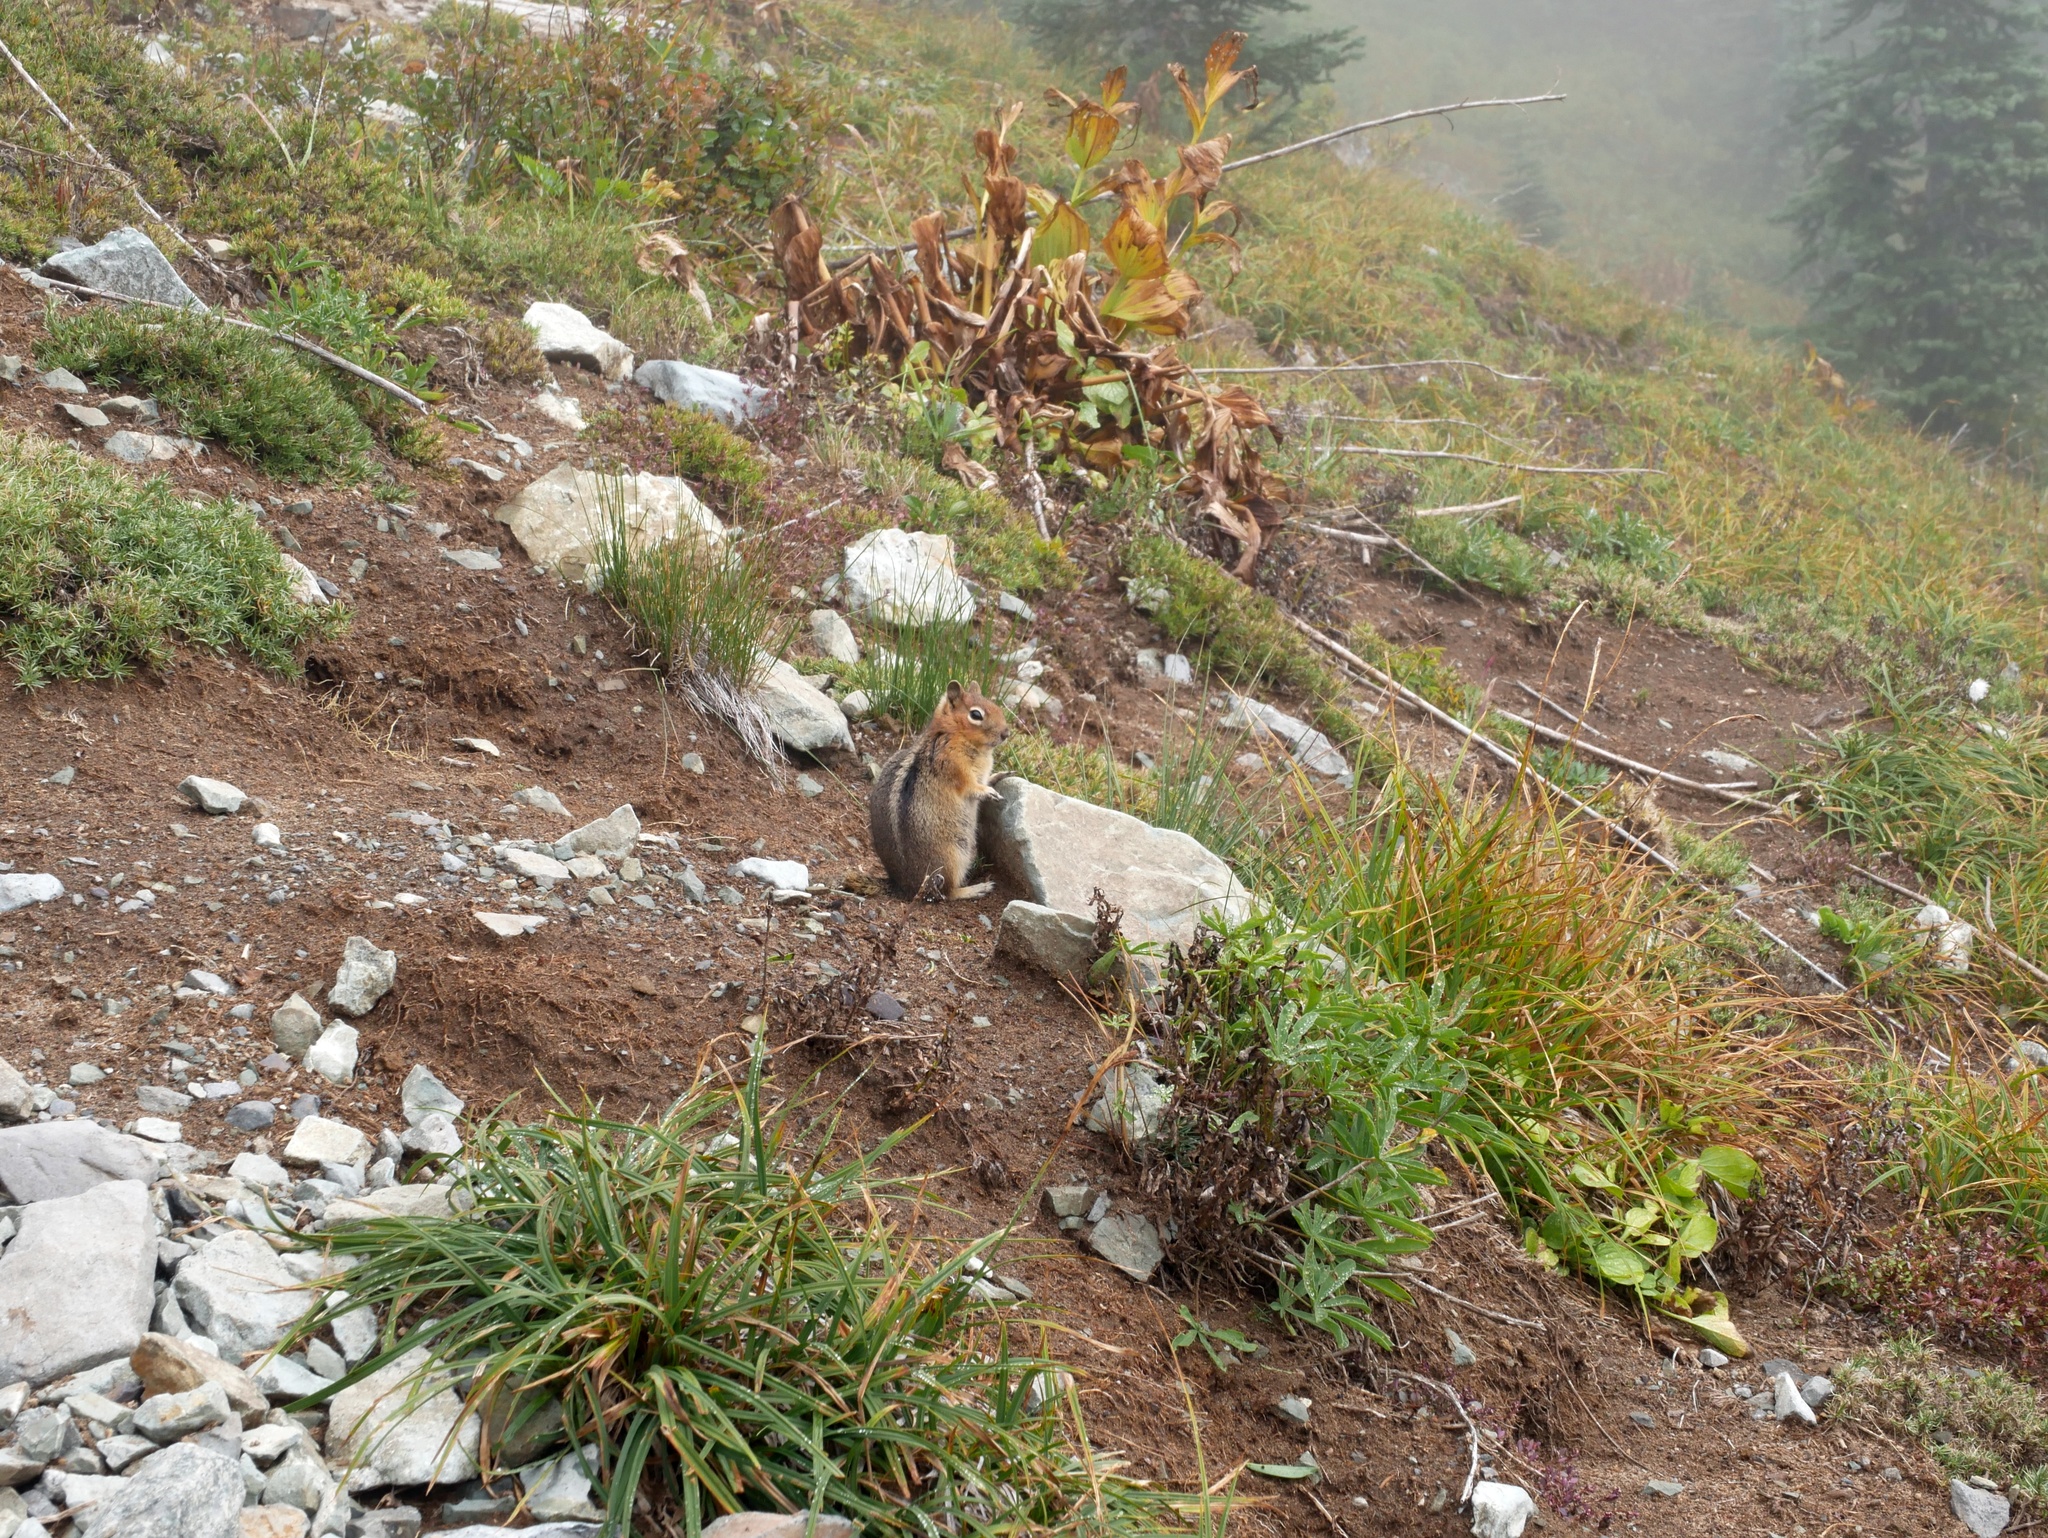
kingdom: Animalia
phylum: Chordata
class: Mammalia
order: Rodentia
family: Sciuridae
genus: Callospermophilus
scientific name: Callospermophilus saturatus
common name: Cascade golden-mantled ground squirrel
